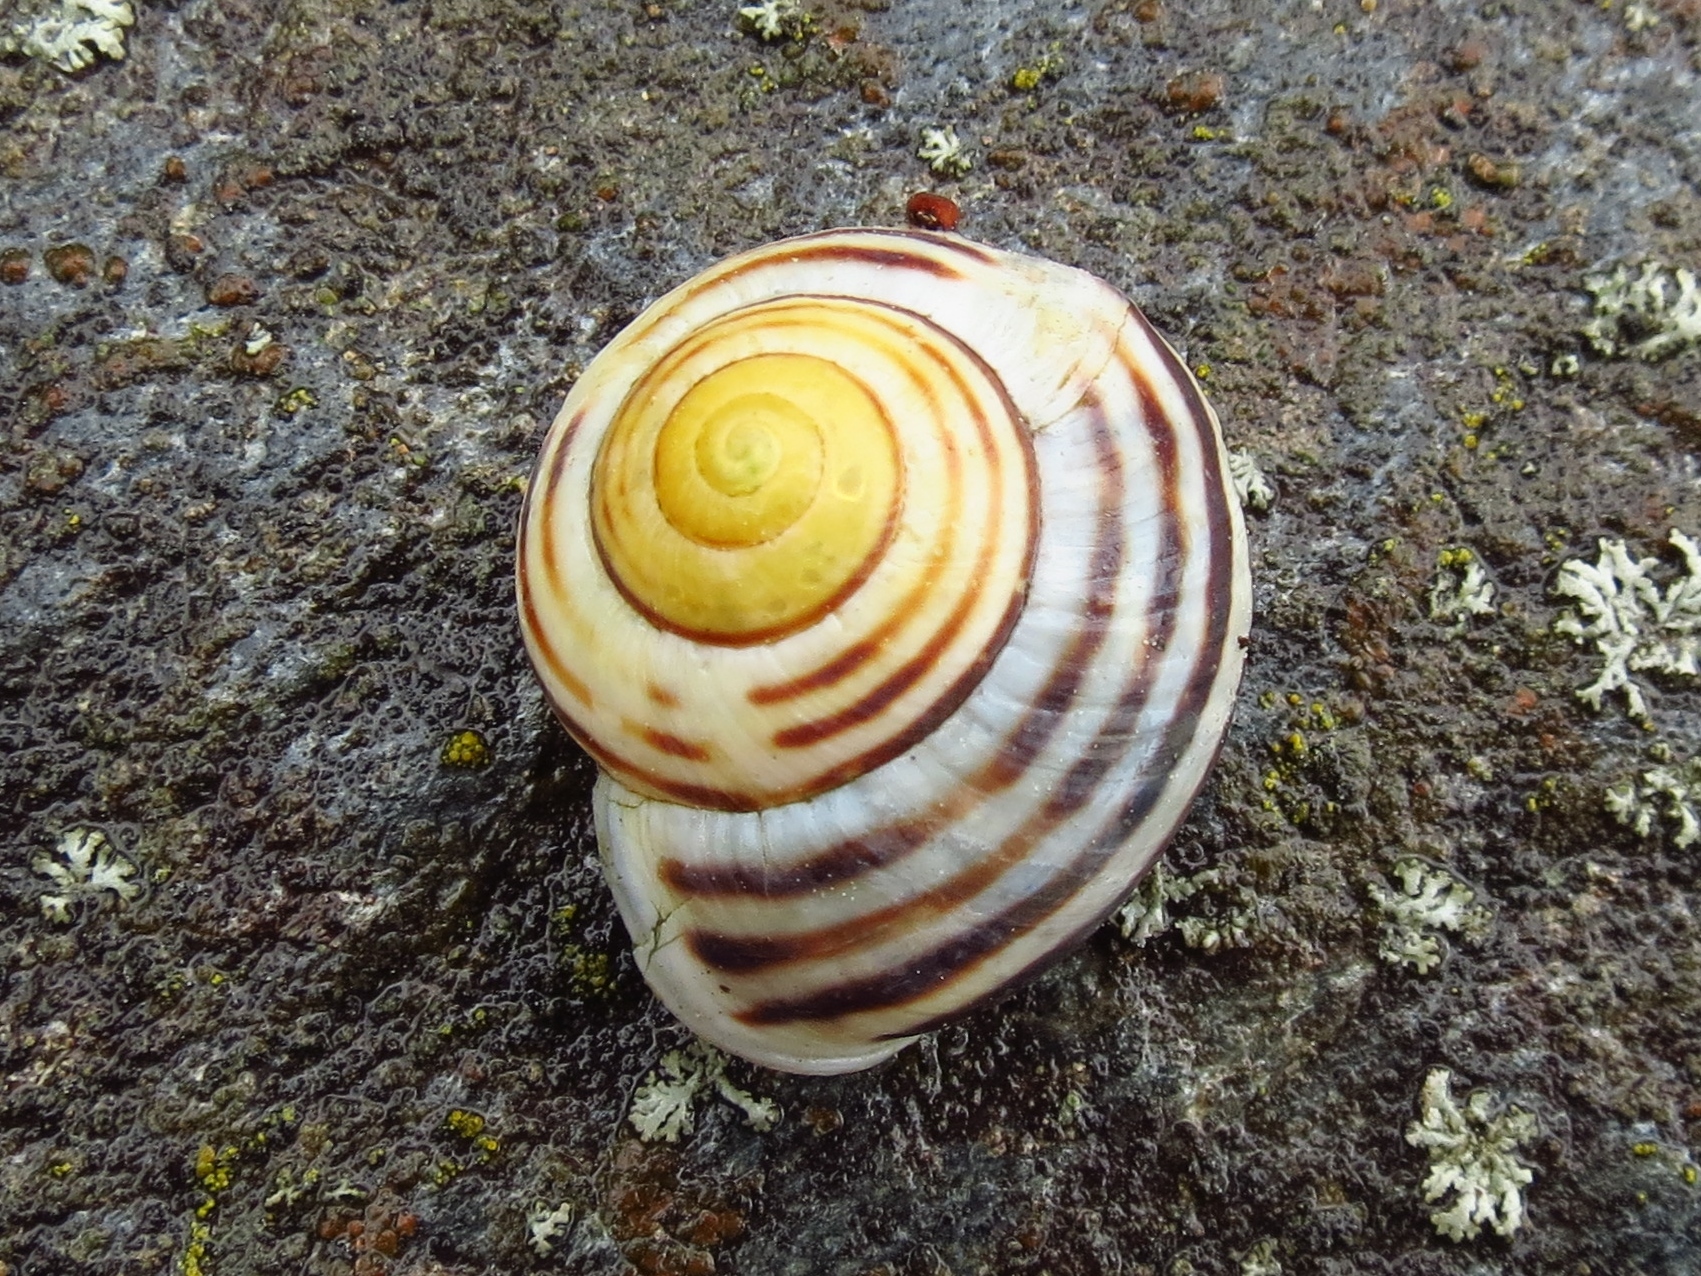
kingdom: Animalia
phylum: Mollusca
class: Gastropoda
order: Stylommatophora
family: Helicidae
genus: Cepaea
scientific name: Cepaea hortensis
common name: White-lip gardensnail
